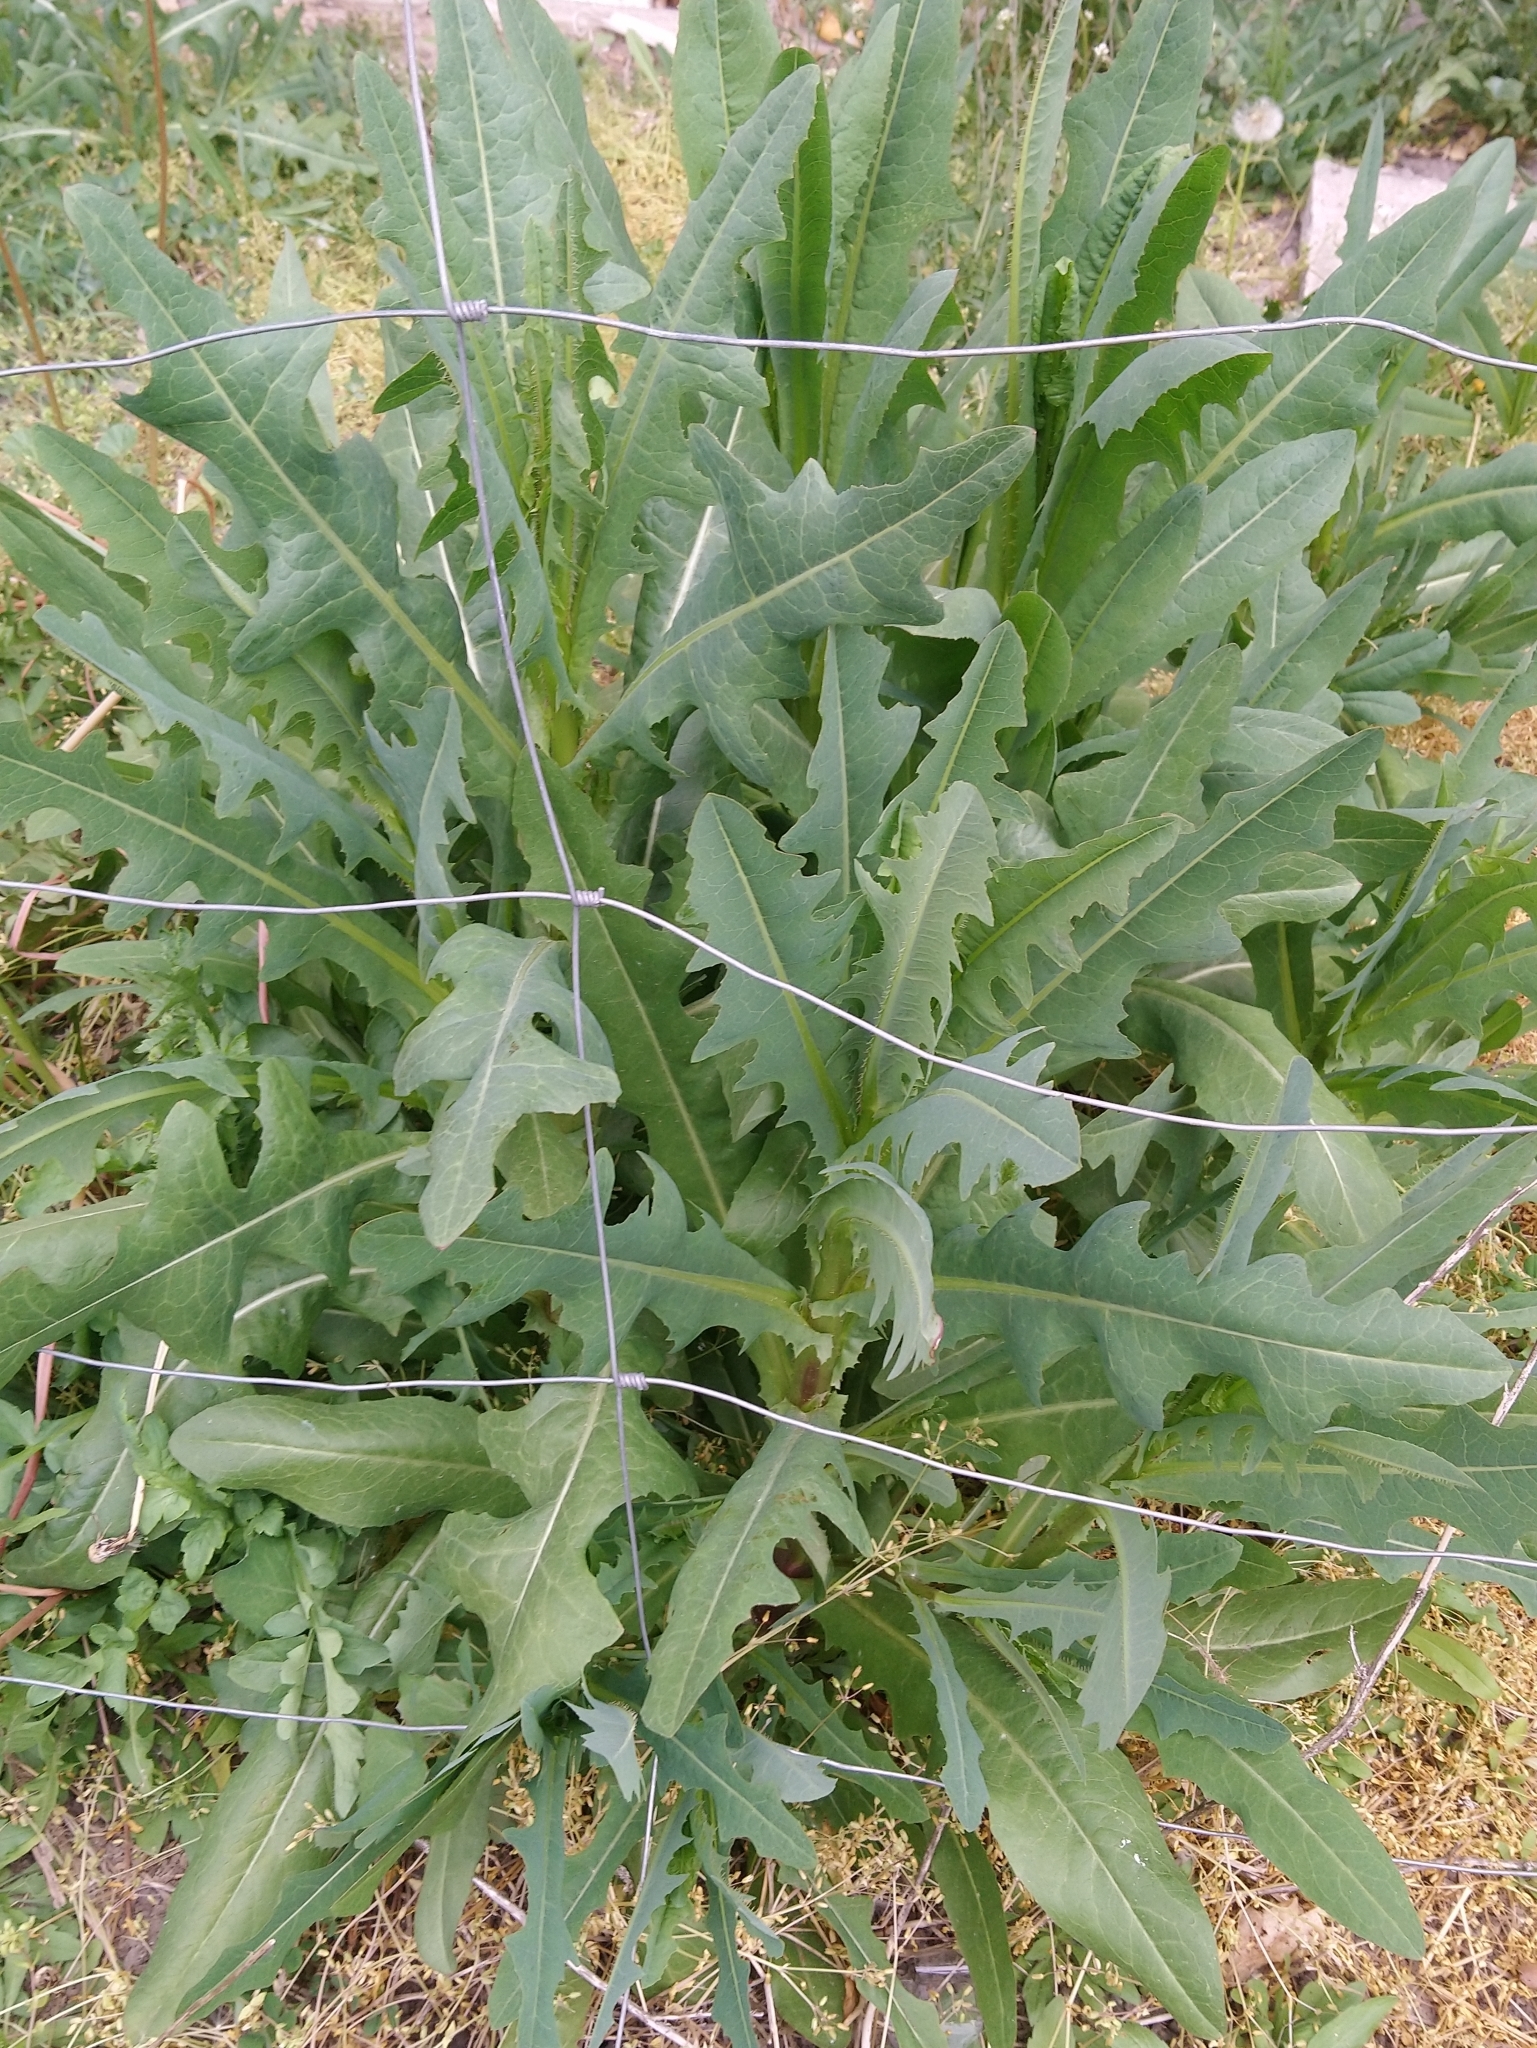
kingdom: Plantae
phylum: Tracheophyta
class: Magnoliopsida
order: Asterales
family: Asteraceae
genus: Cichorium
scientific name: Cichorium intybus
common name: Chicory
